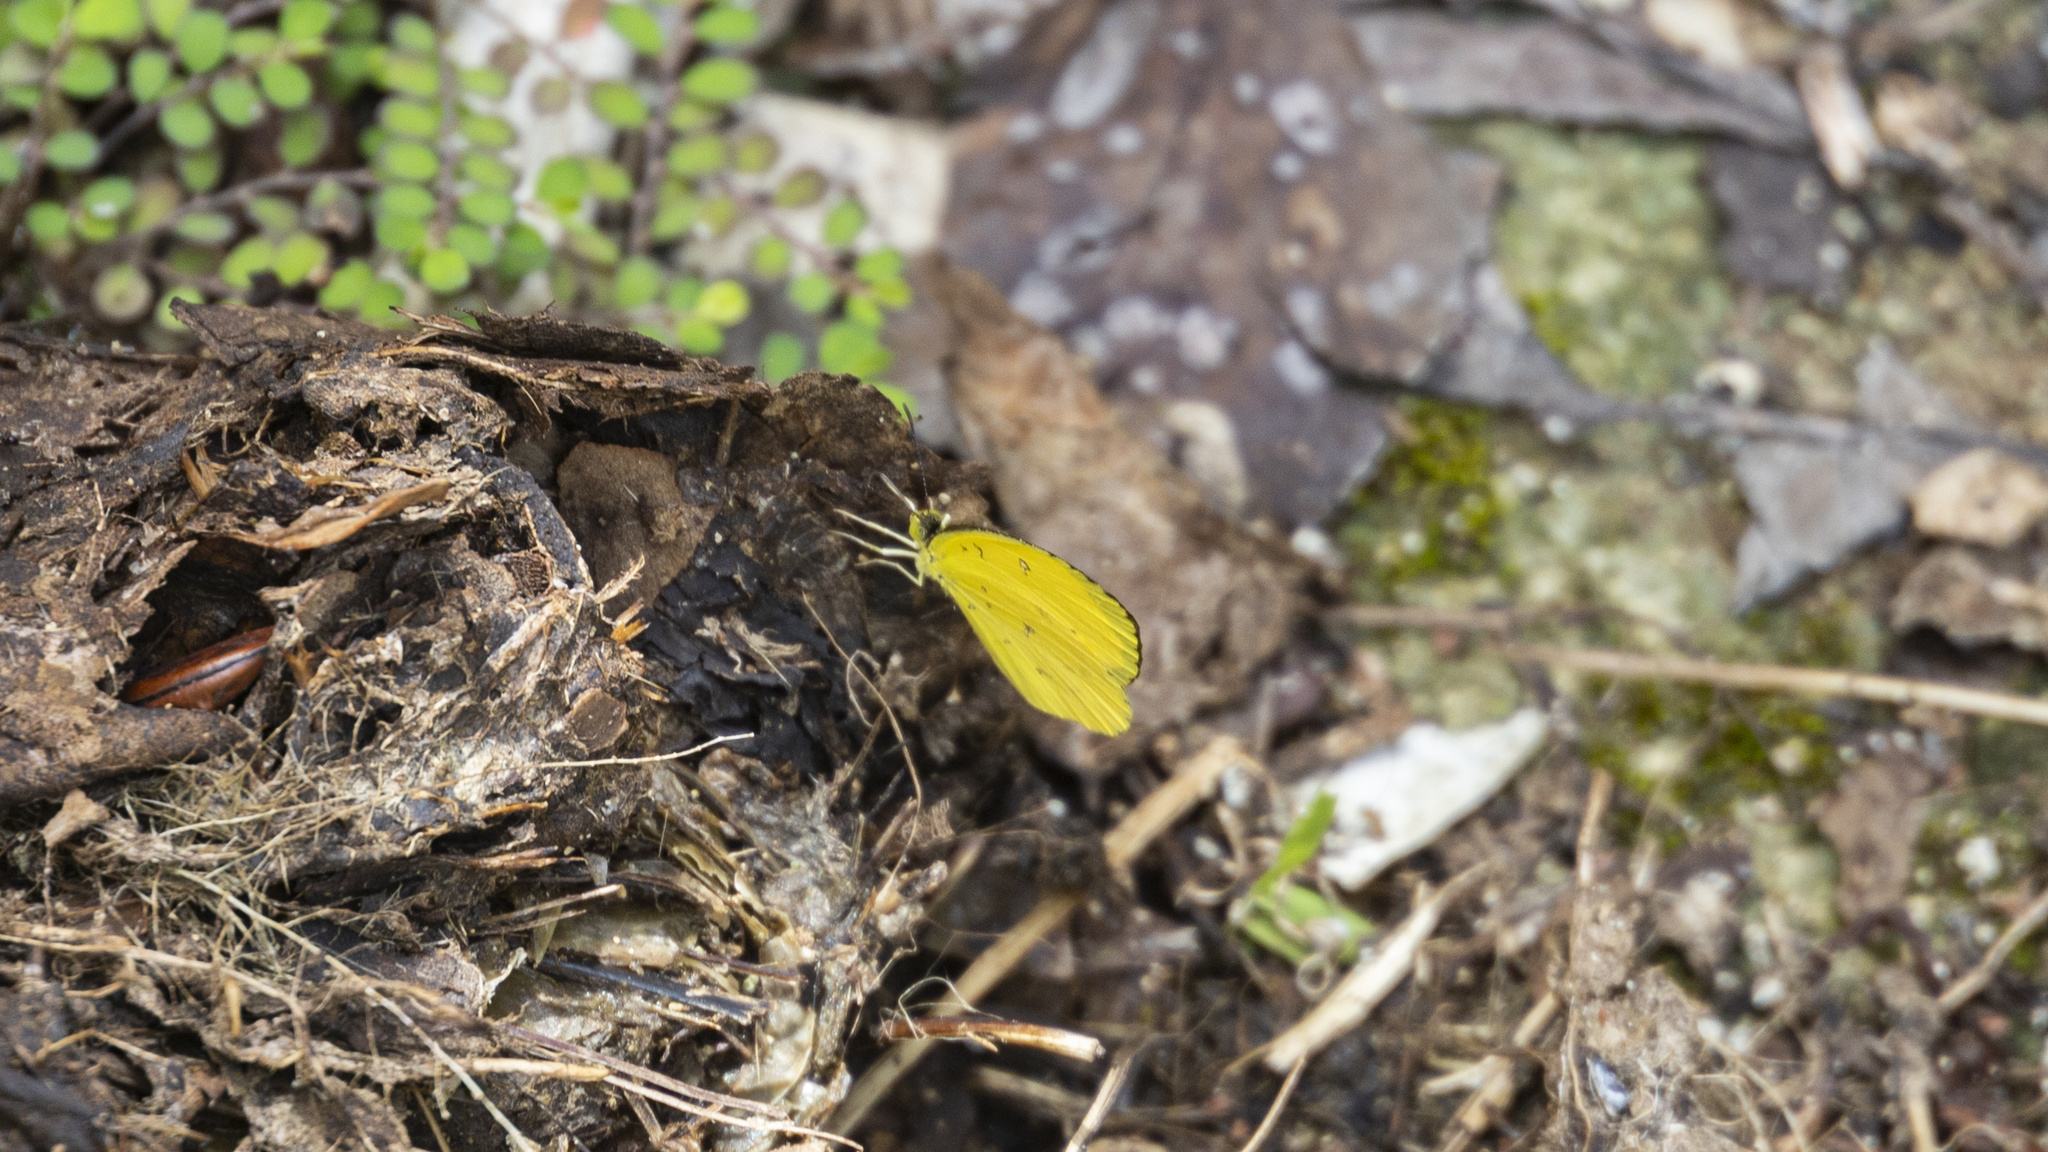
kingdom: Animalia
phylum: Arthropoda
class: Insecta
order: Lepidoptera
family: Pieridae
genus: Eurema
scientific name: Eurema floricola
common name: Malagasy grass yellow
